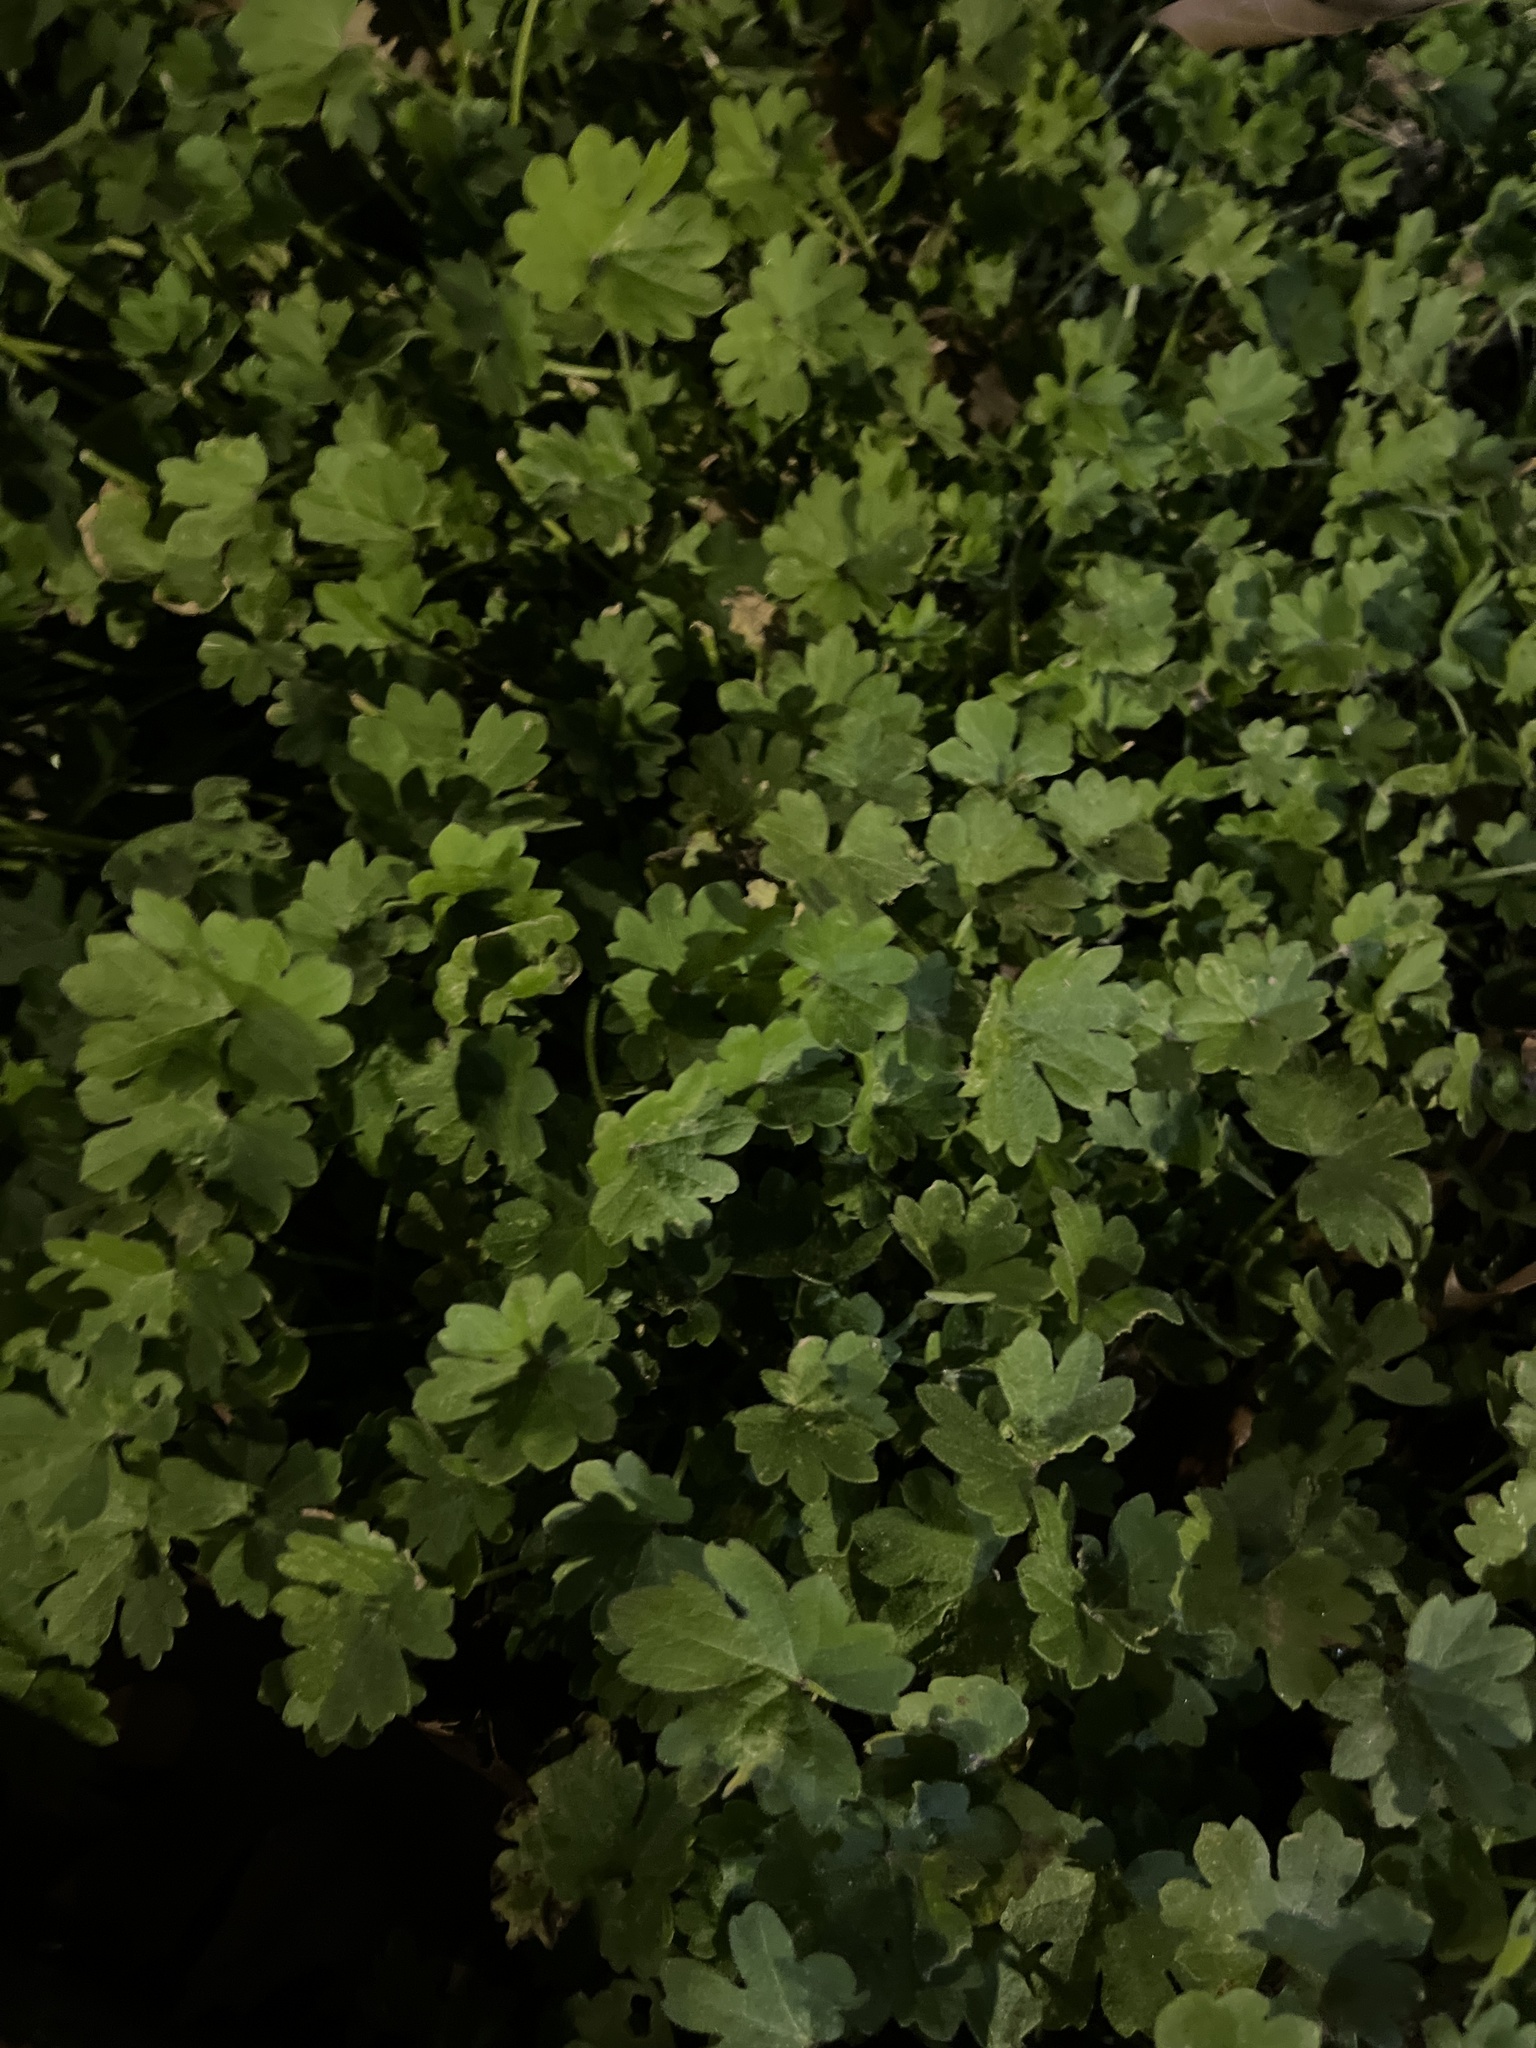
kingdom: Plantae
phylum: Tracheophyta
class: Magnoliopsida
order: Apiales
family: Apiaceae
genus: Bowlesia
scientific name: Bowlesia incana
